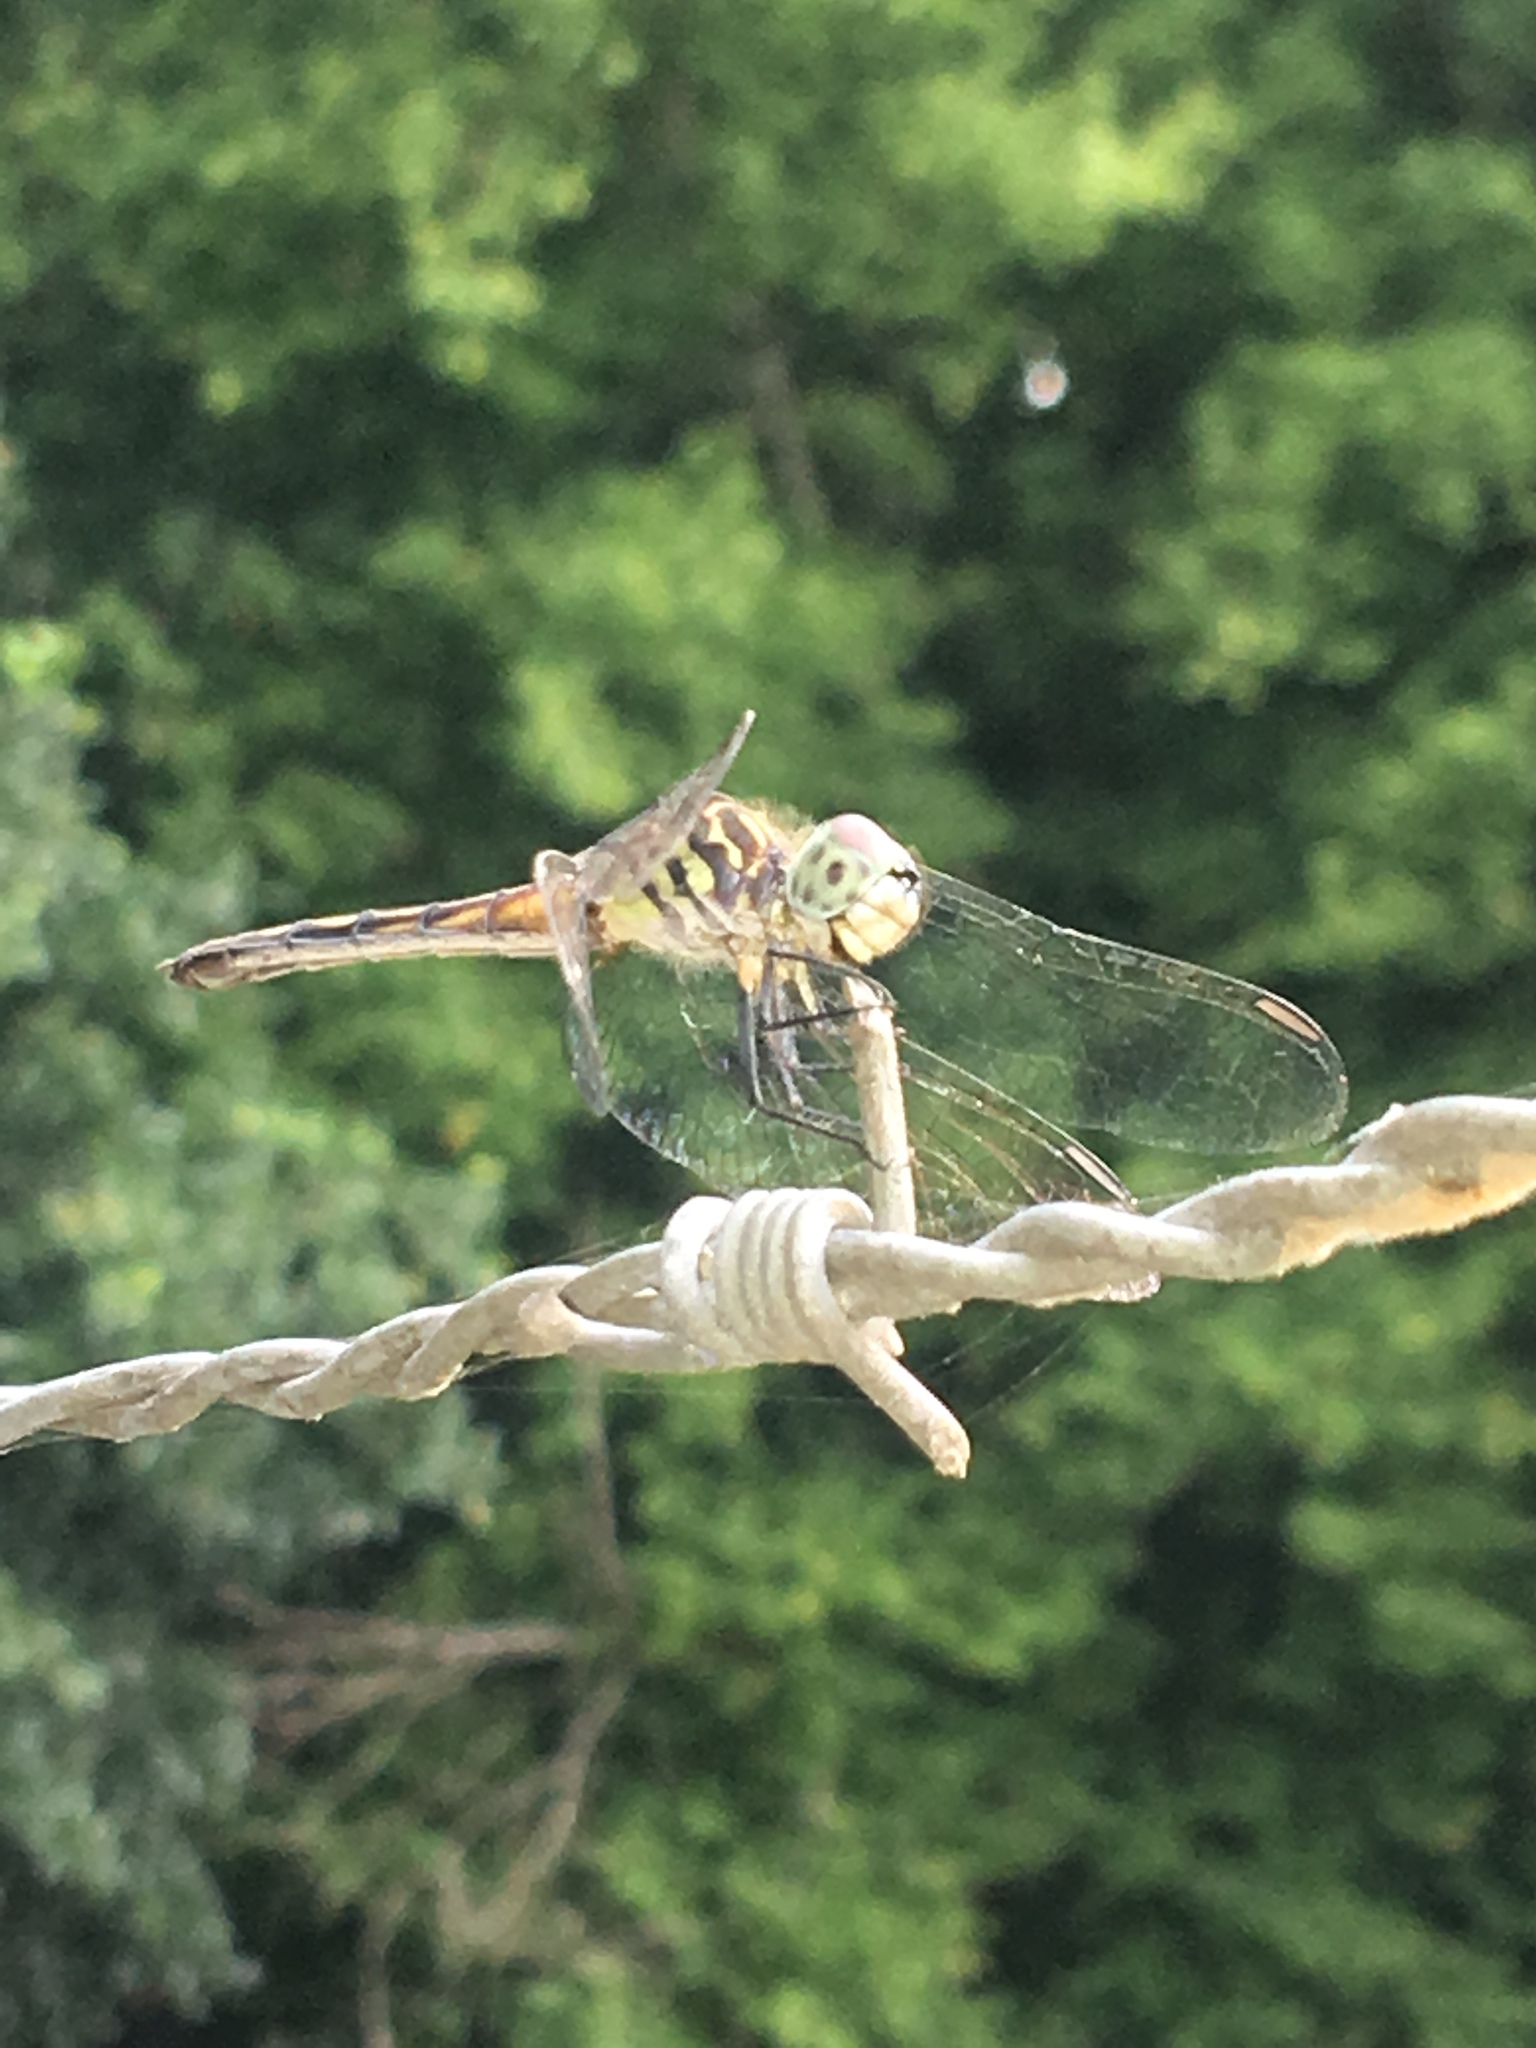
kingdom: Animalia
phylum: Arthropoda
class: Insecta
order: Odonata
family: Libellulidae
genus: Pachydiplax
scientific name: Pachydiplax longipennis
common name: Blue dasher
